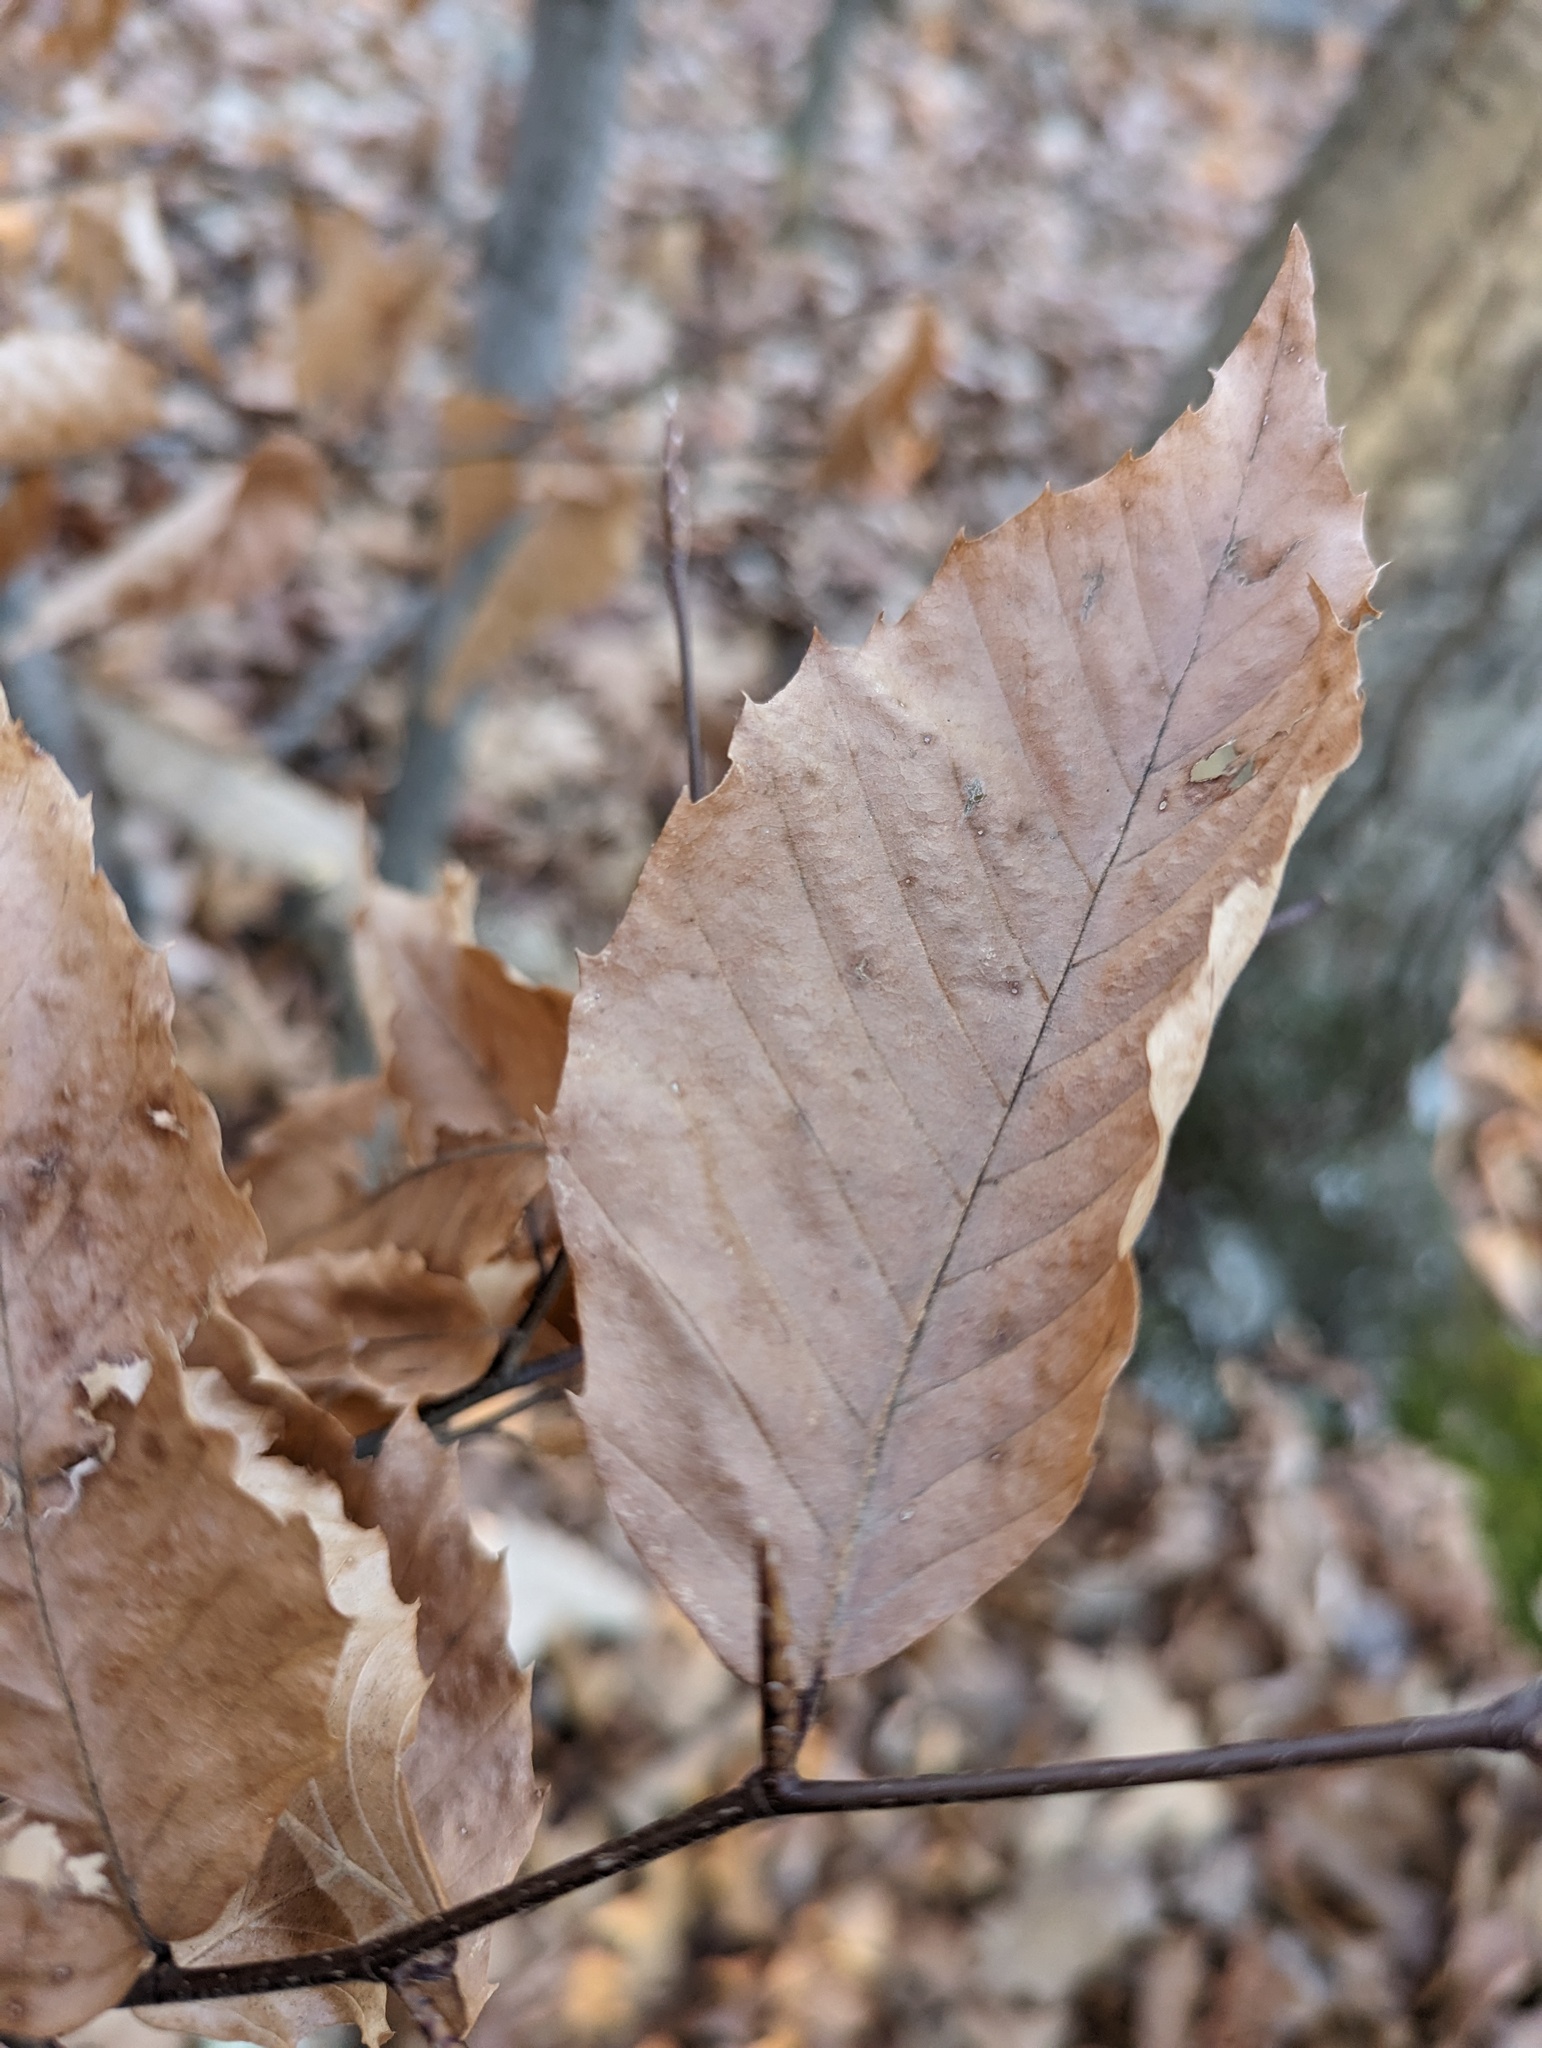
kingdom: Plantae
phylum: Tracheophyta
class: Magnoliopsida
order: Fagales
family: Fagaceae
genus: Fagus
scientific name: Fagus grandifolia
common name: American beech
